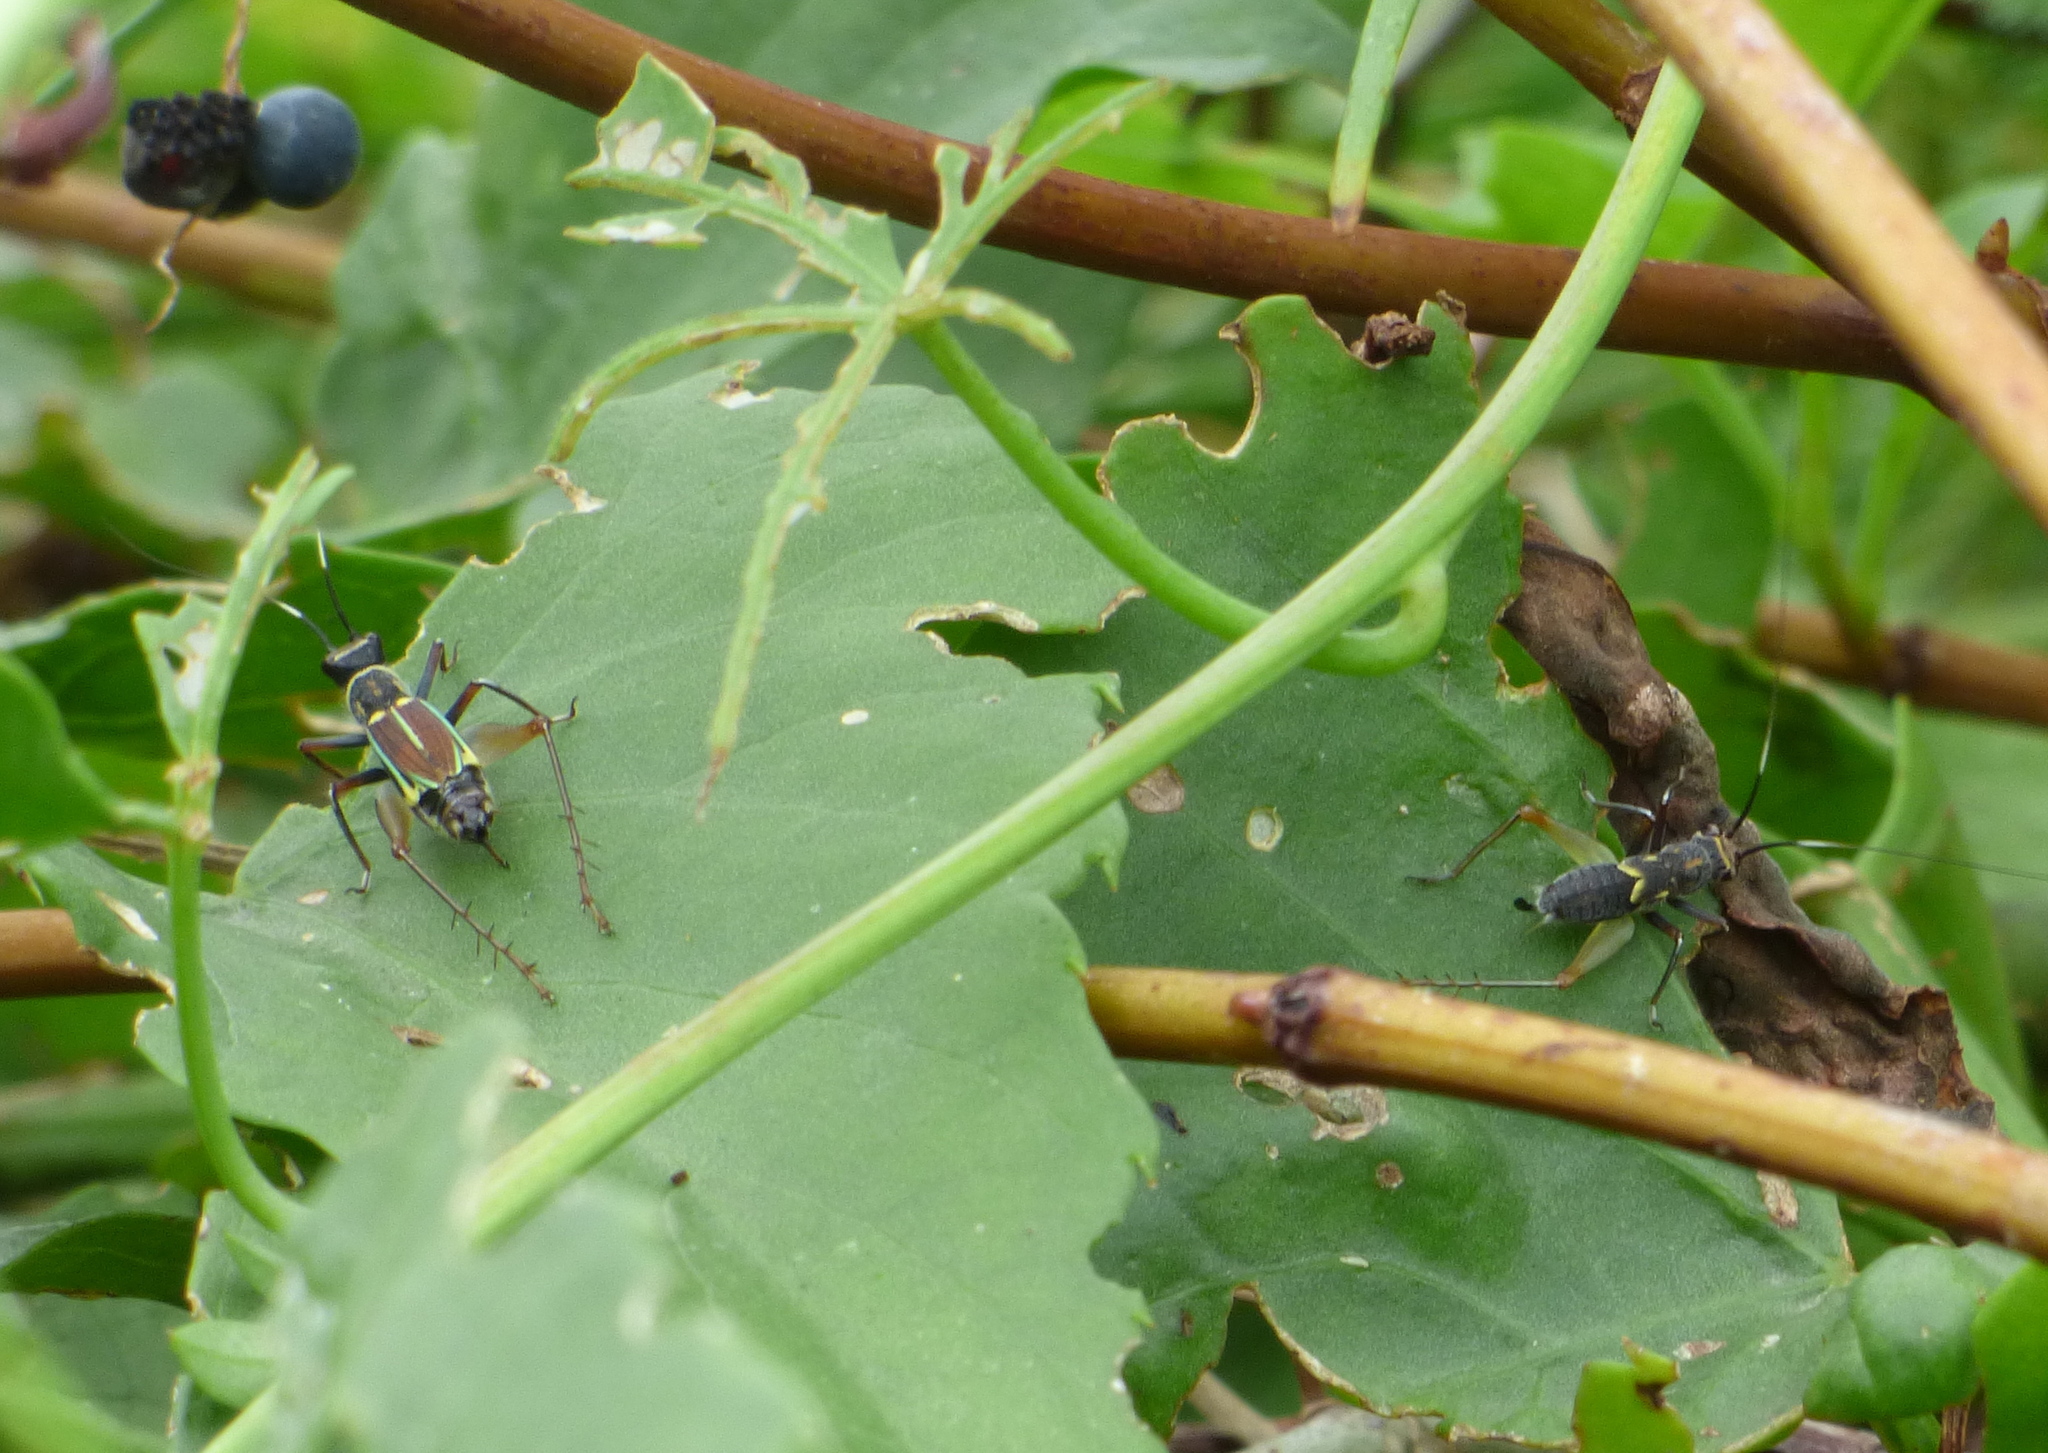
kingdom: Animalia
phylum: Arthropoda
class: Insecta
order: Orthoptera
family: Trigonidiidae
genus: Phylloscyrtus
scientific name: Phylloscyrtus amoenus
